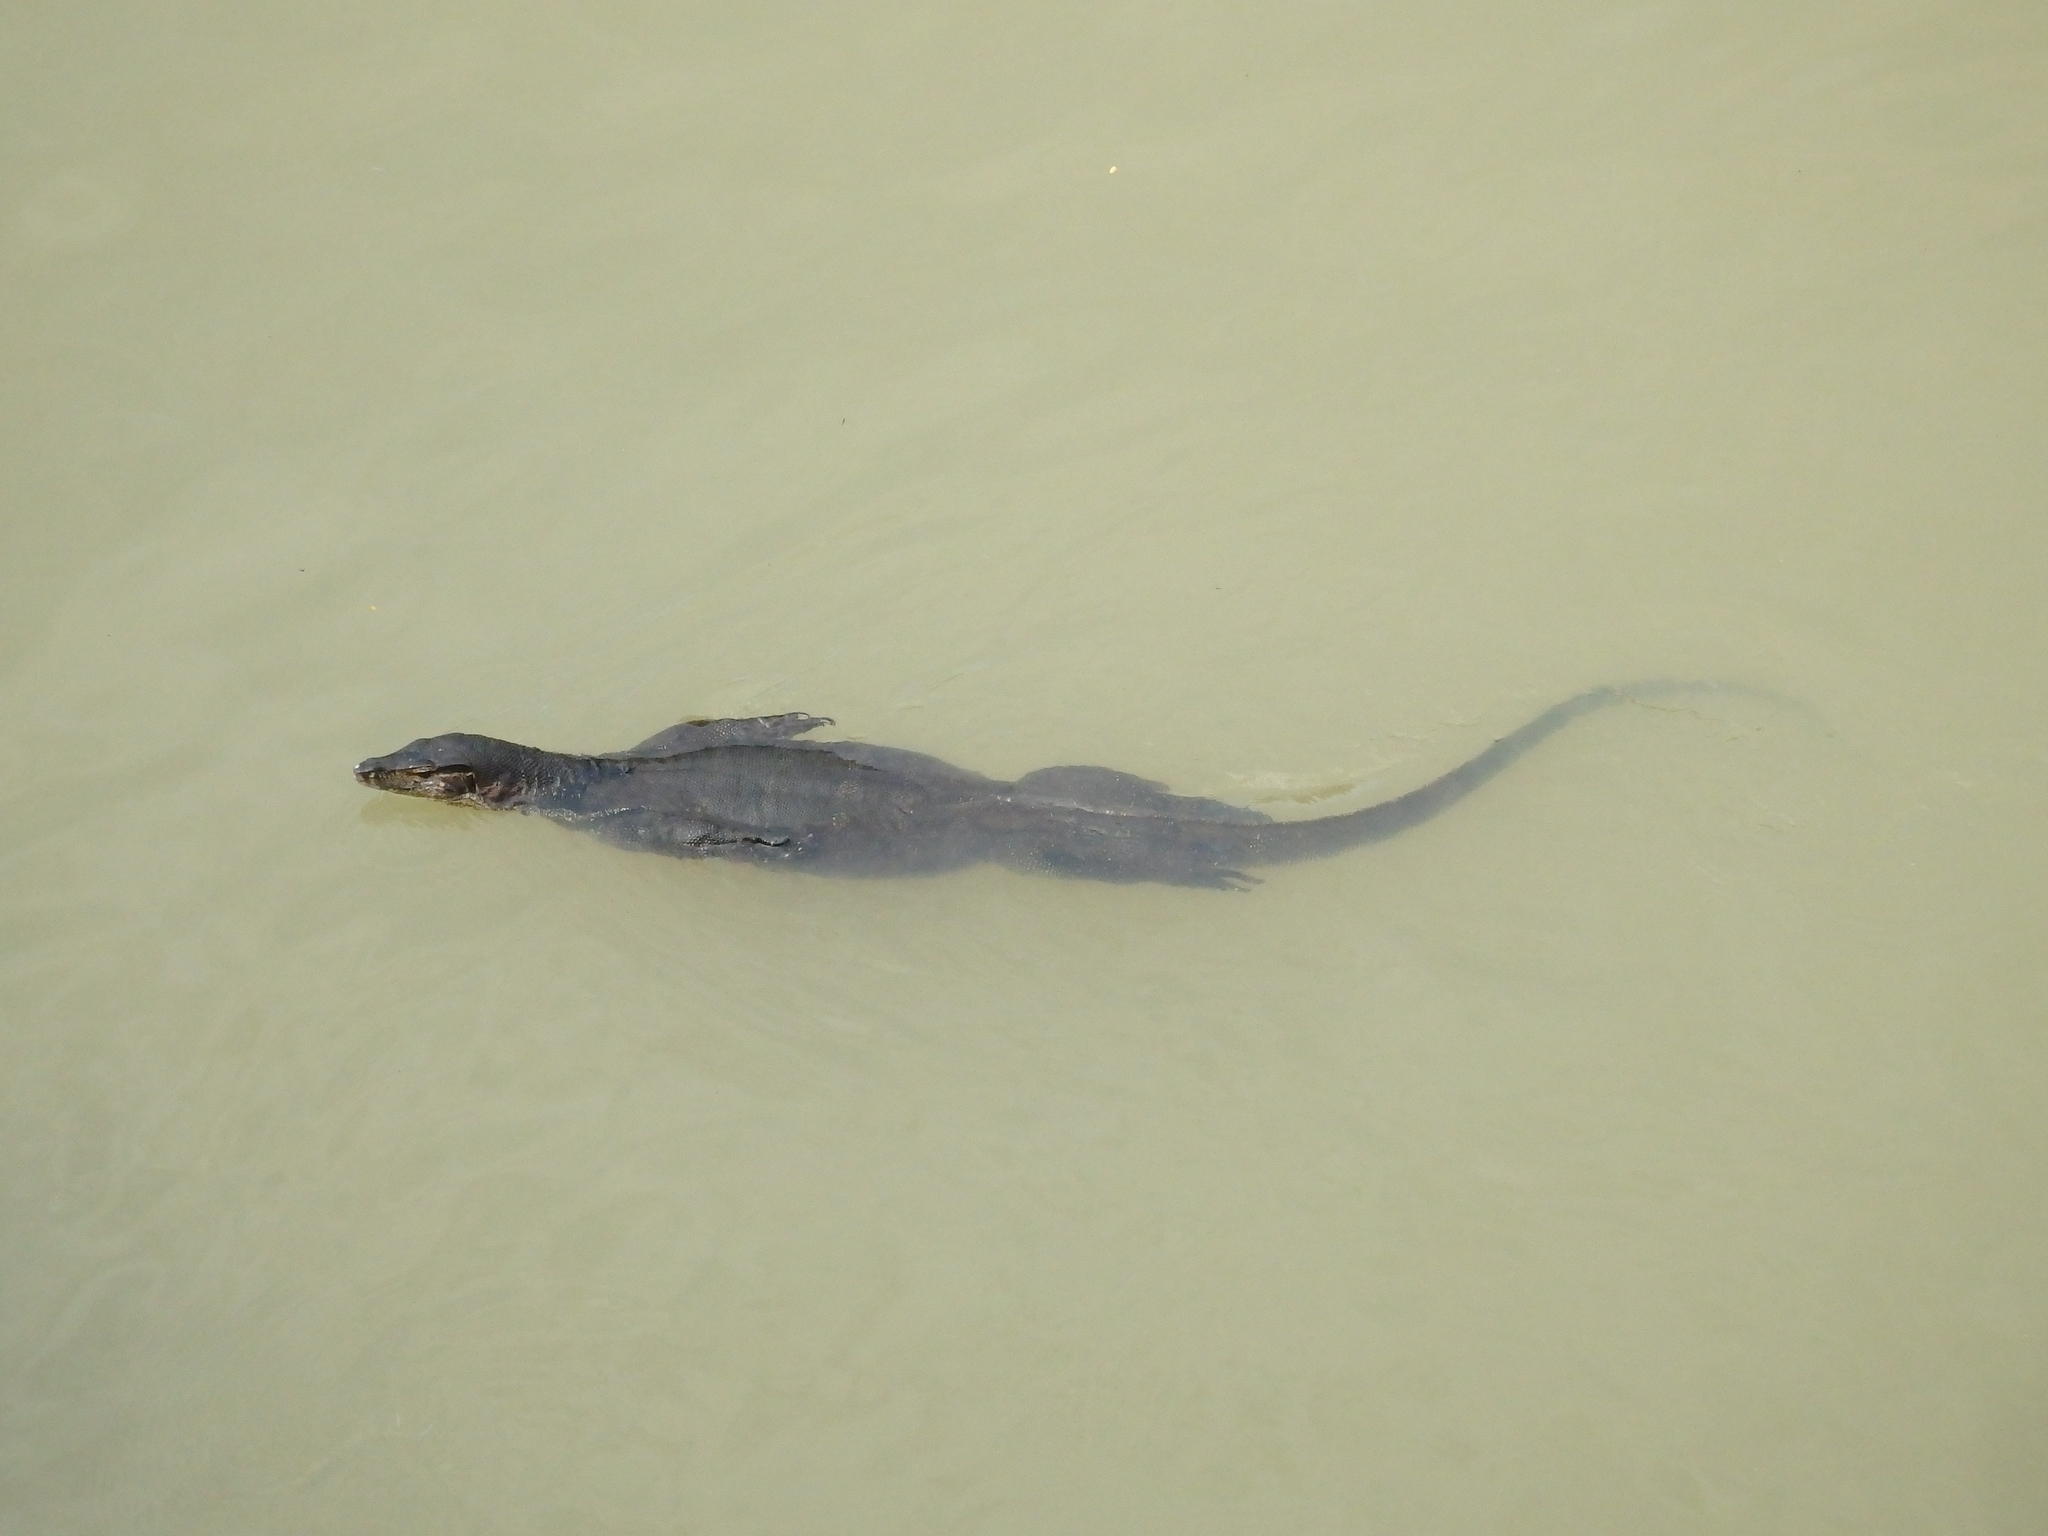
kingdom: Animalia
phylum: Chordata
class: Squamata
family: Varanidae
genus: Varanus
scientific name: Varanus salvator
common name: Common water monitor
